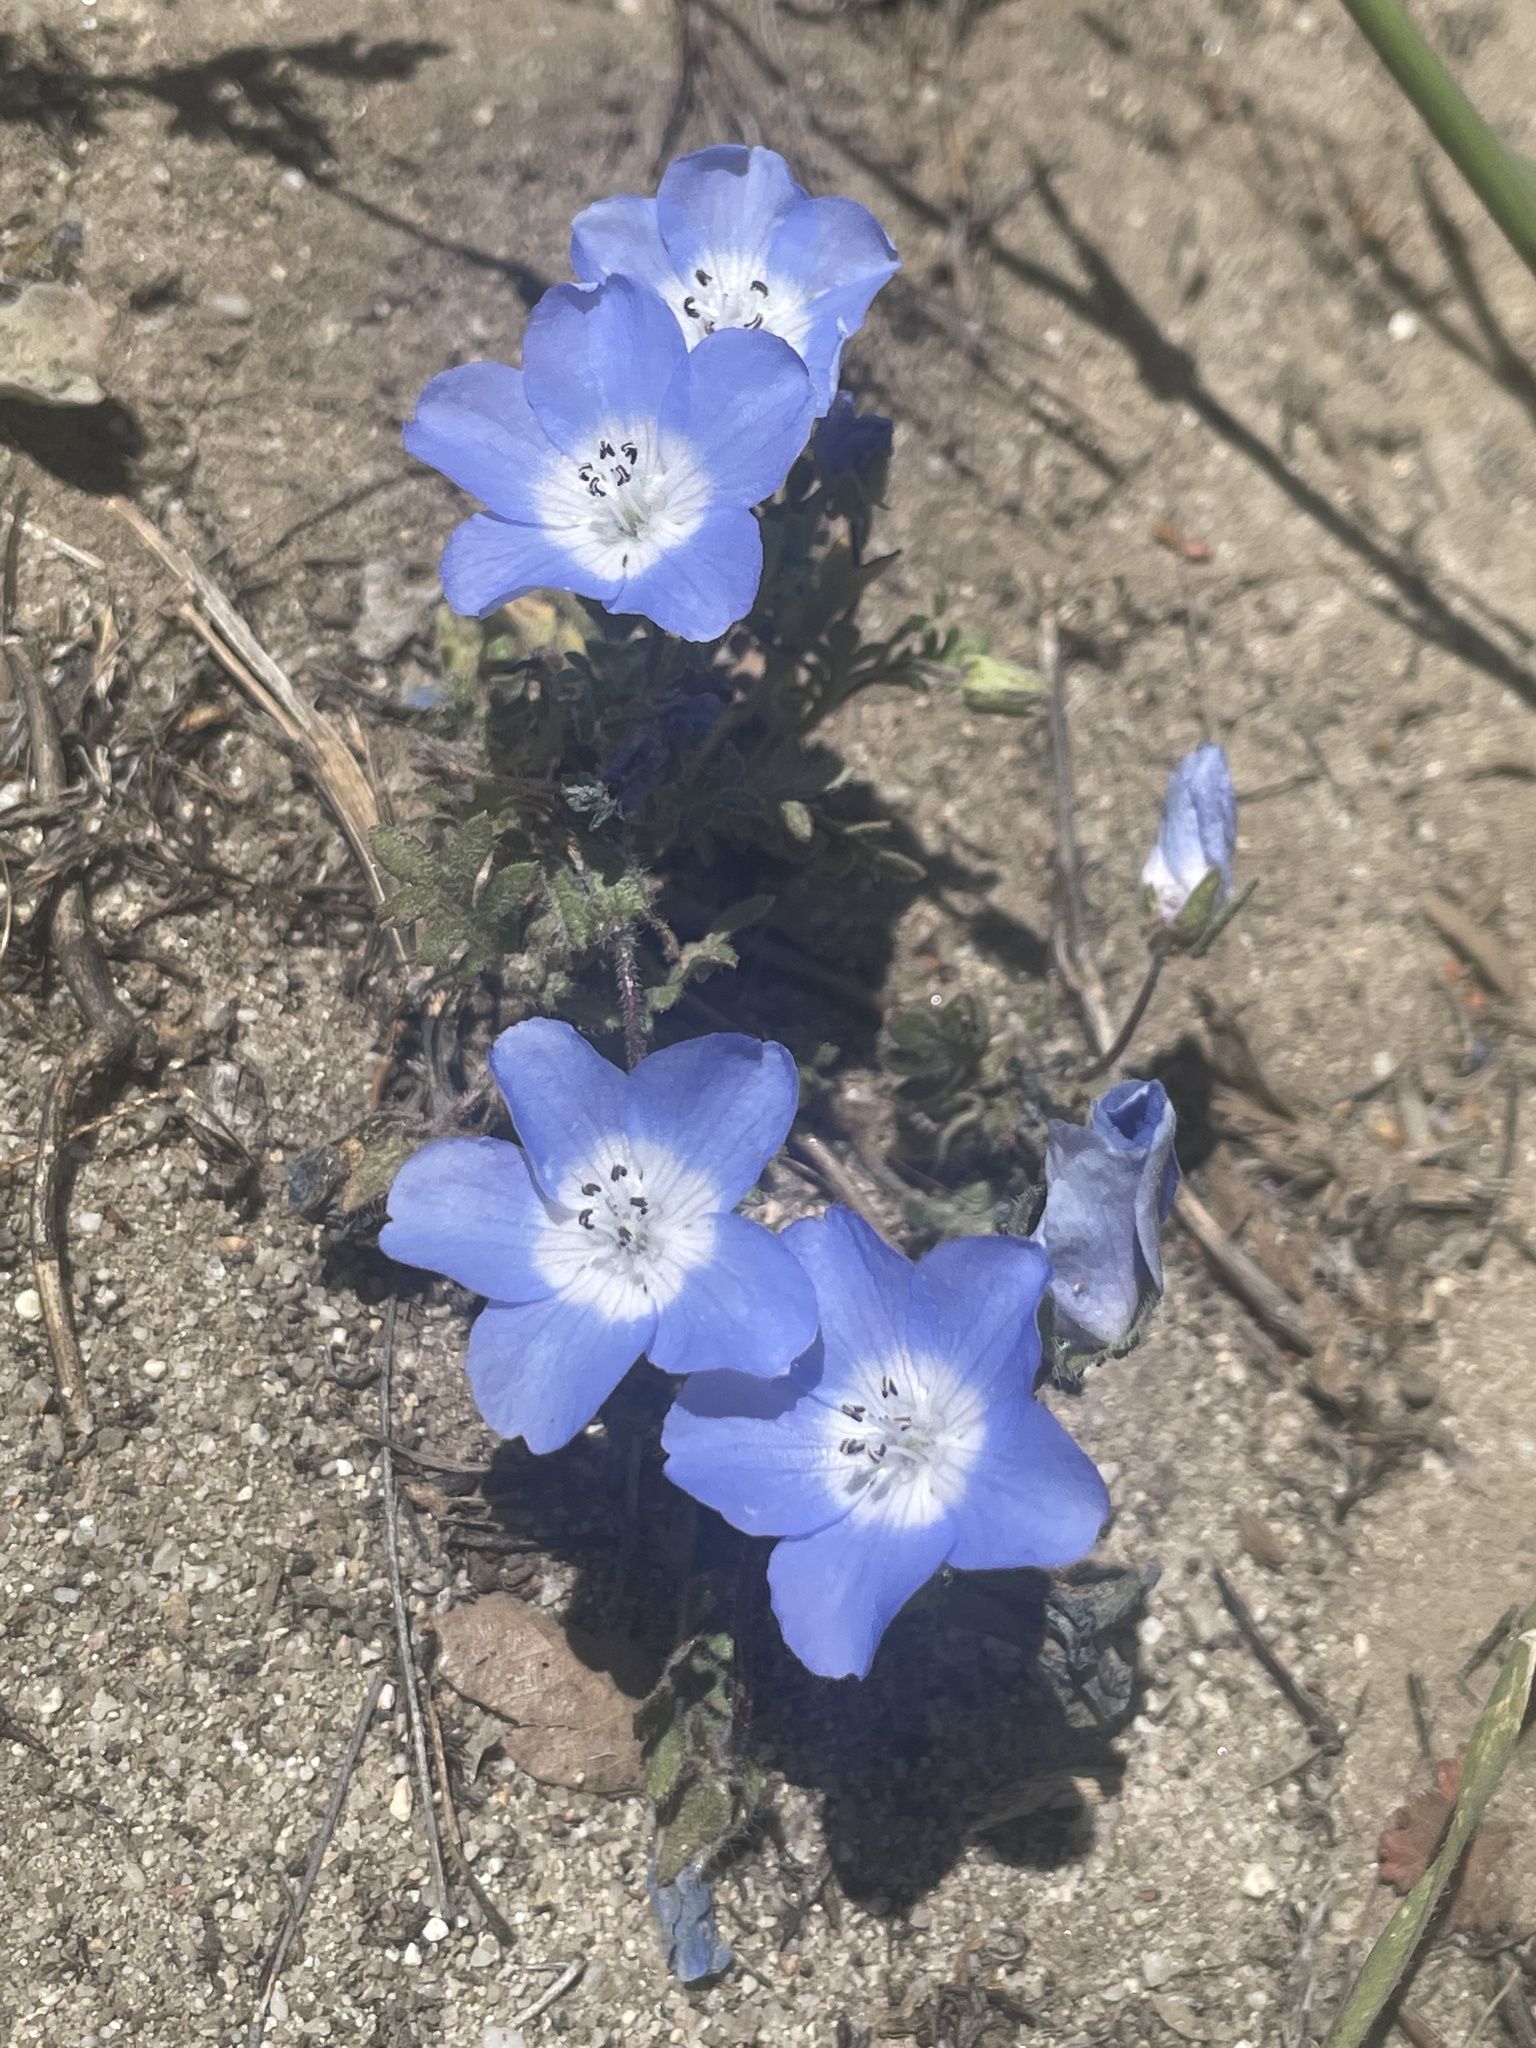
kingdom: Plantae
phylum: Tracheophyta
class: Magnoliopsida
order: Boraginales
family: Hydrophyllaceae
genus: Nemophila
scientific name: Nemophila menziesii
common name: Baby's-blue-eyes
